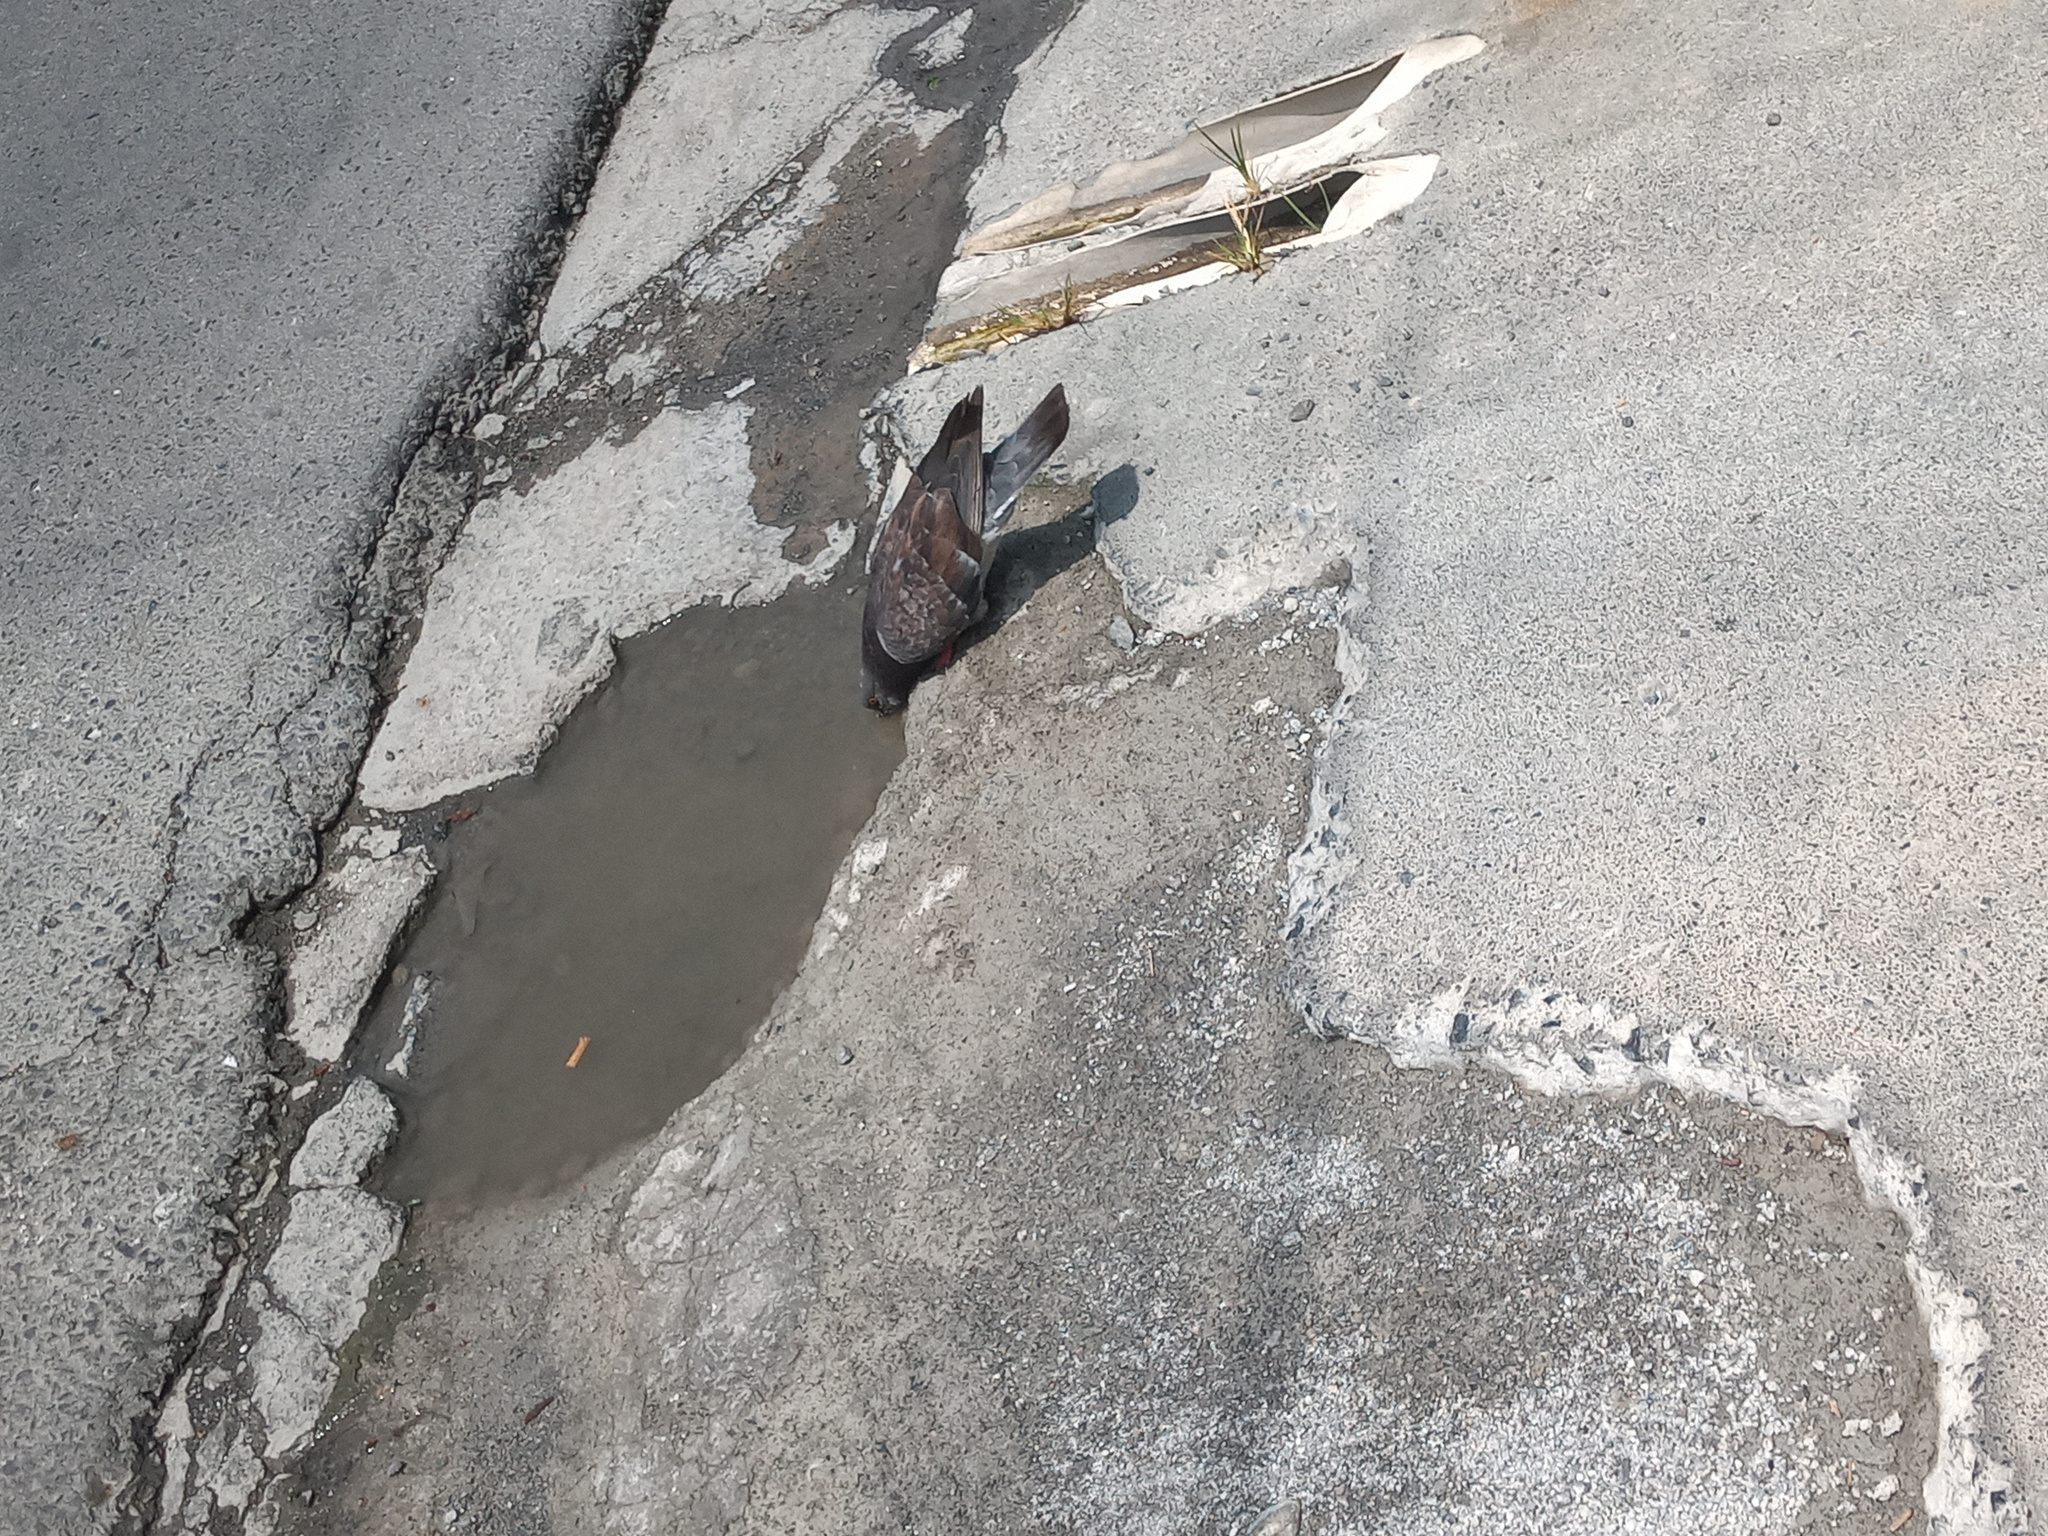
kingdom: Animalia
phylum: Chordata
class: Aves
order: Columbiformes
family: Columbidae
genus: Columba
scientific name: Columba livia
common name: Rock pigeon
